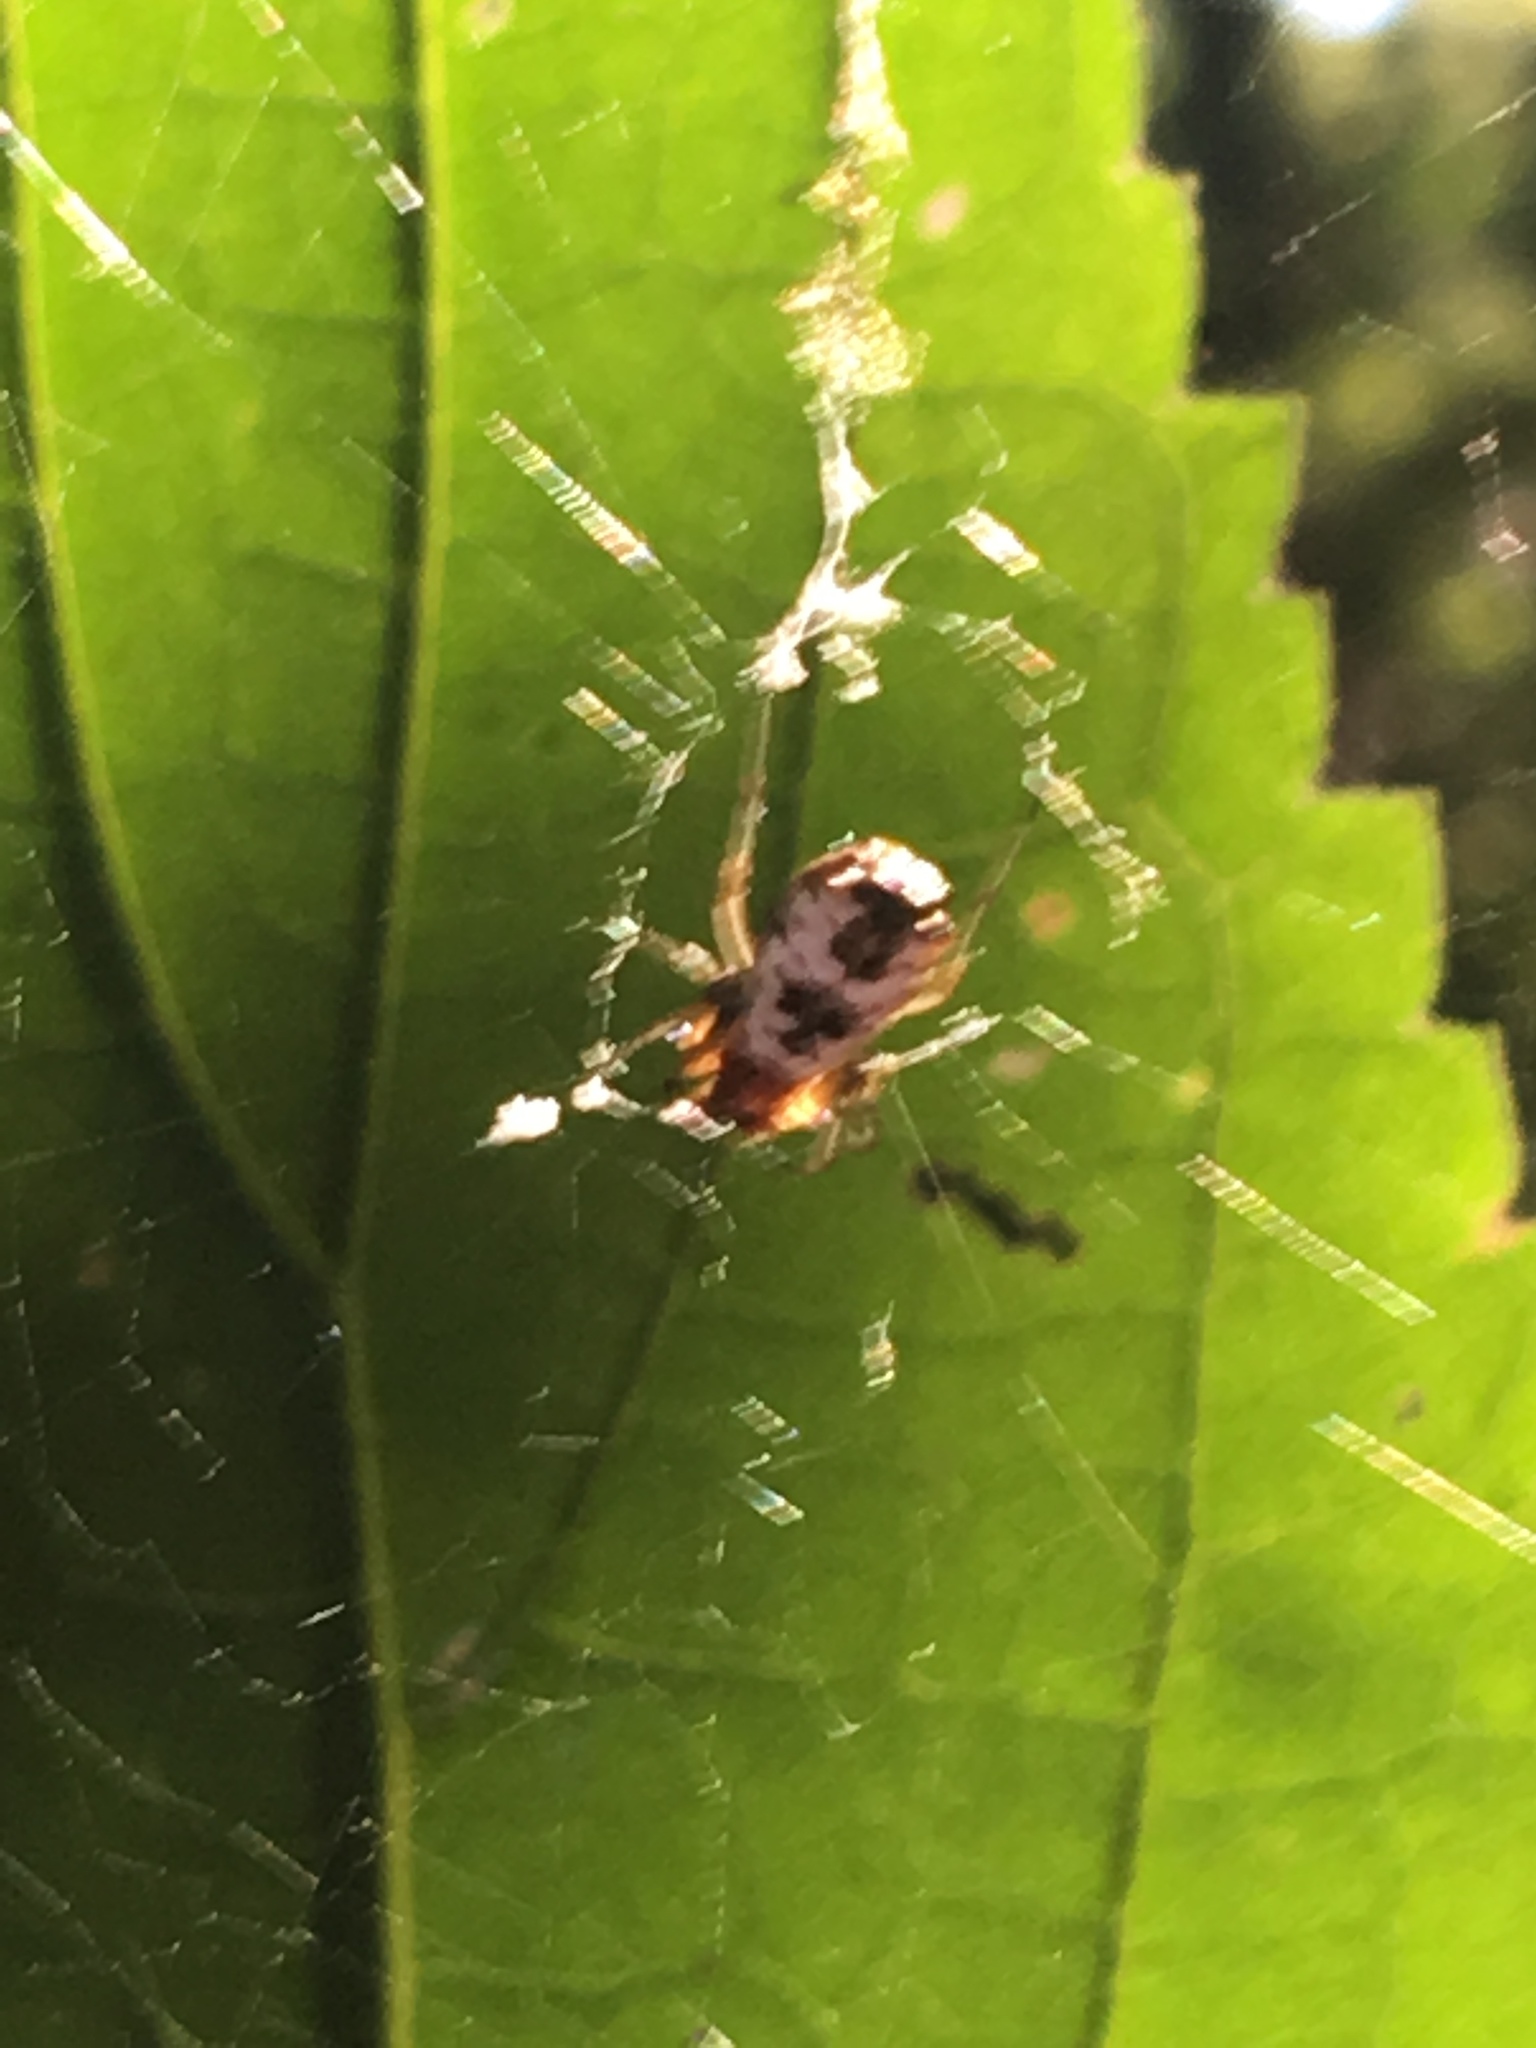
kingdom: Animalia
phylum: Arthropoda
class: Arachnida
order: Araneae
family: Araneidae
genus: Micrathena
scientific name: Micrathena mitrata
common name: Orb weavers
